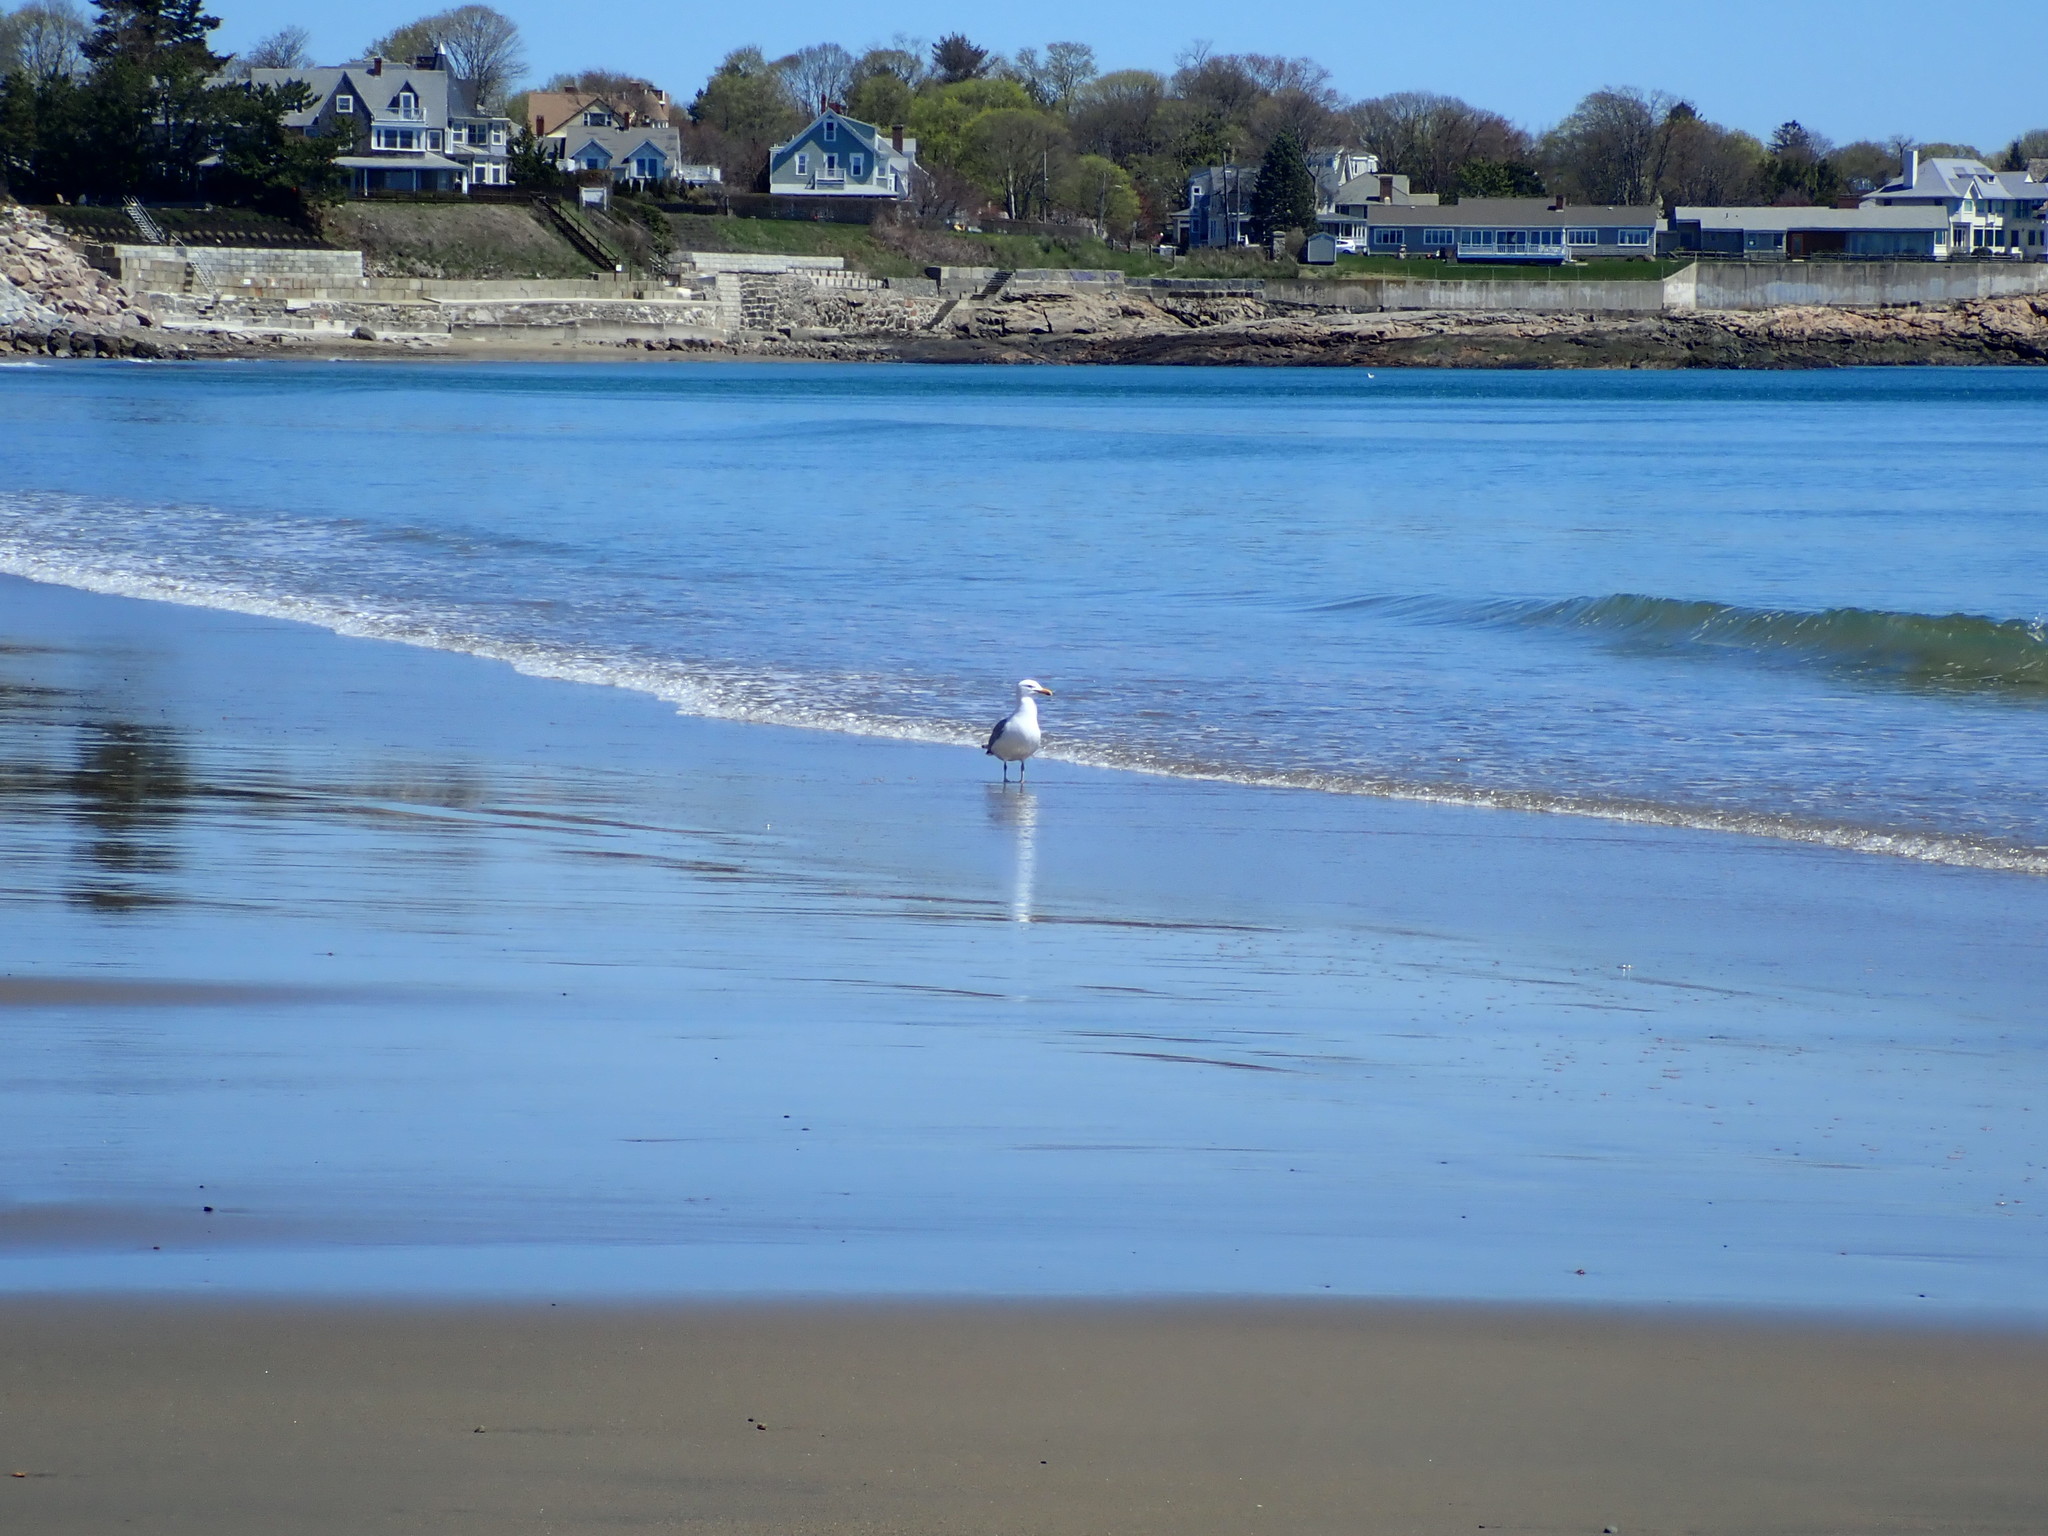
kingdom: Animalia
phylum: Chordata
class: Aves
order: Charadriiformes
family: Laridae
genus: Larus
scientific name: Larus argentatus
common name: Herring gull
